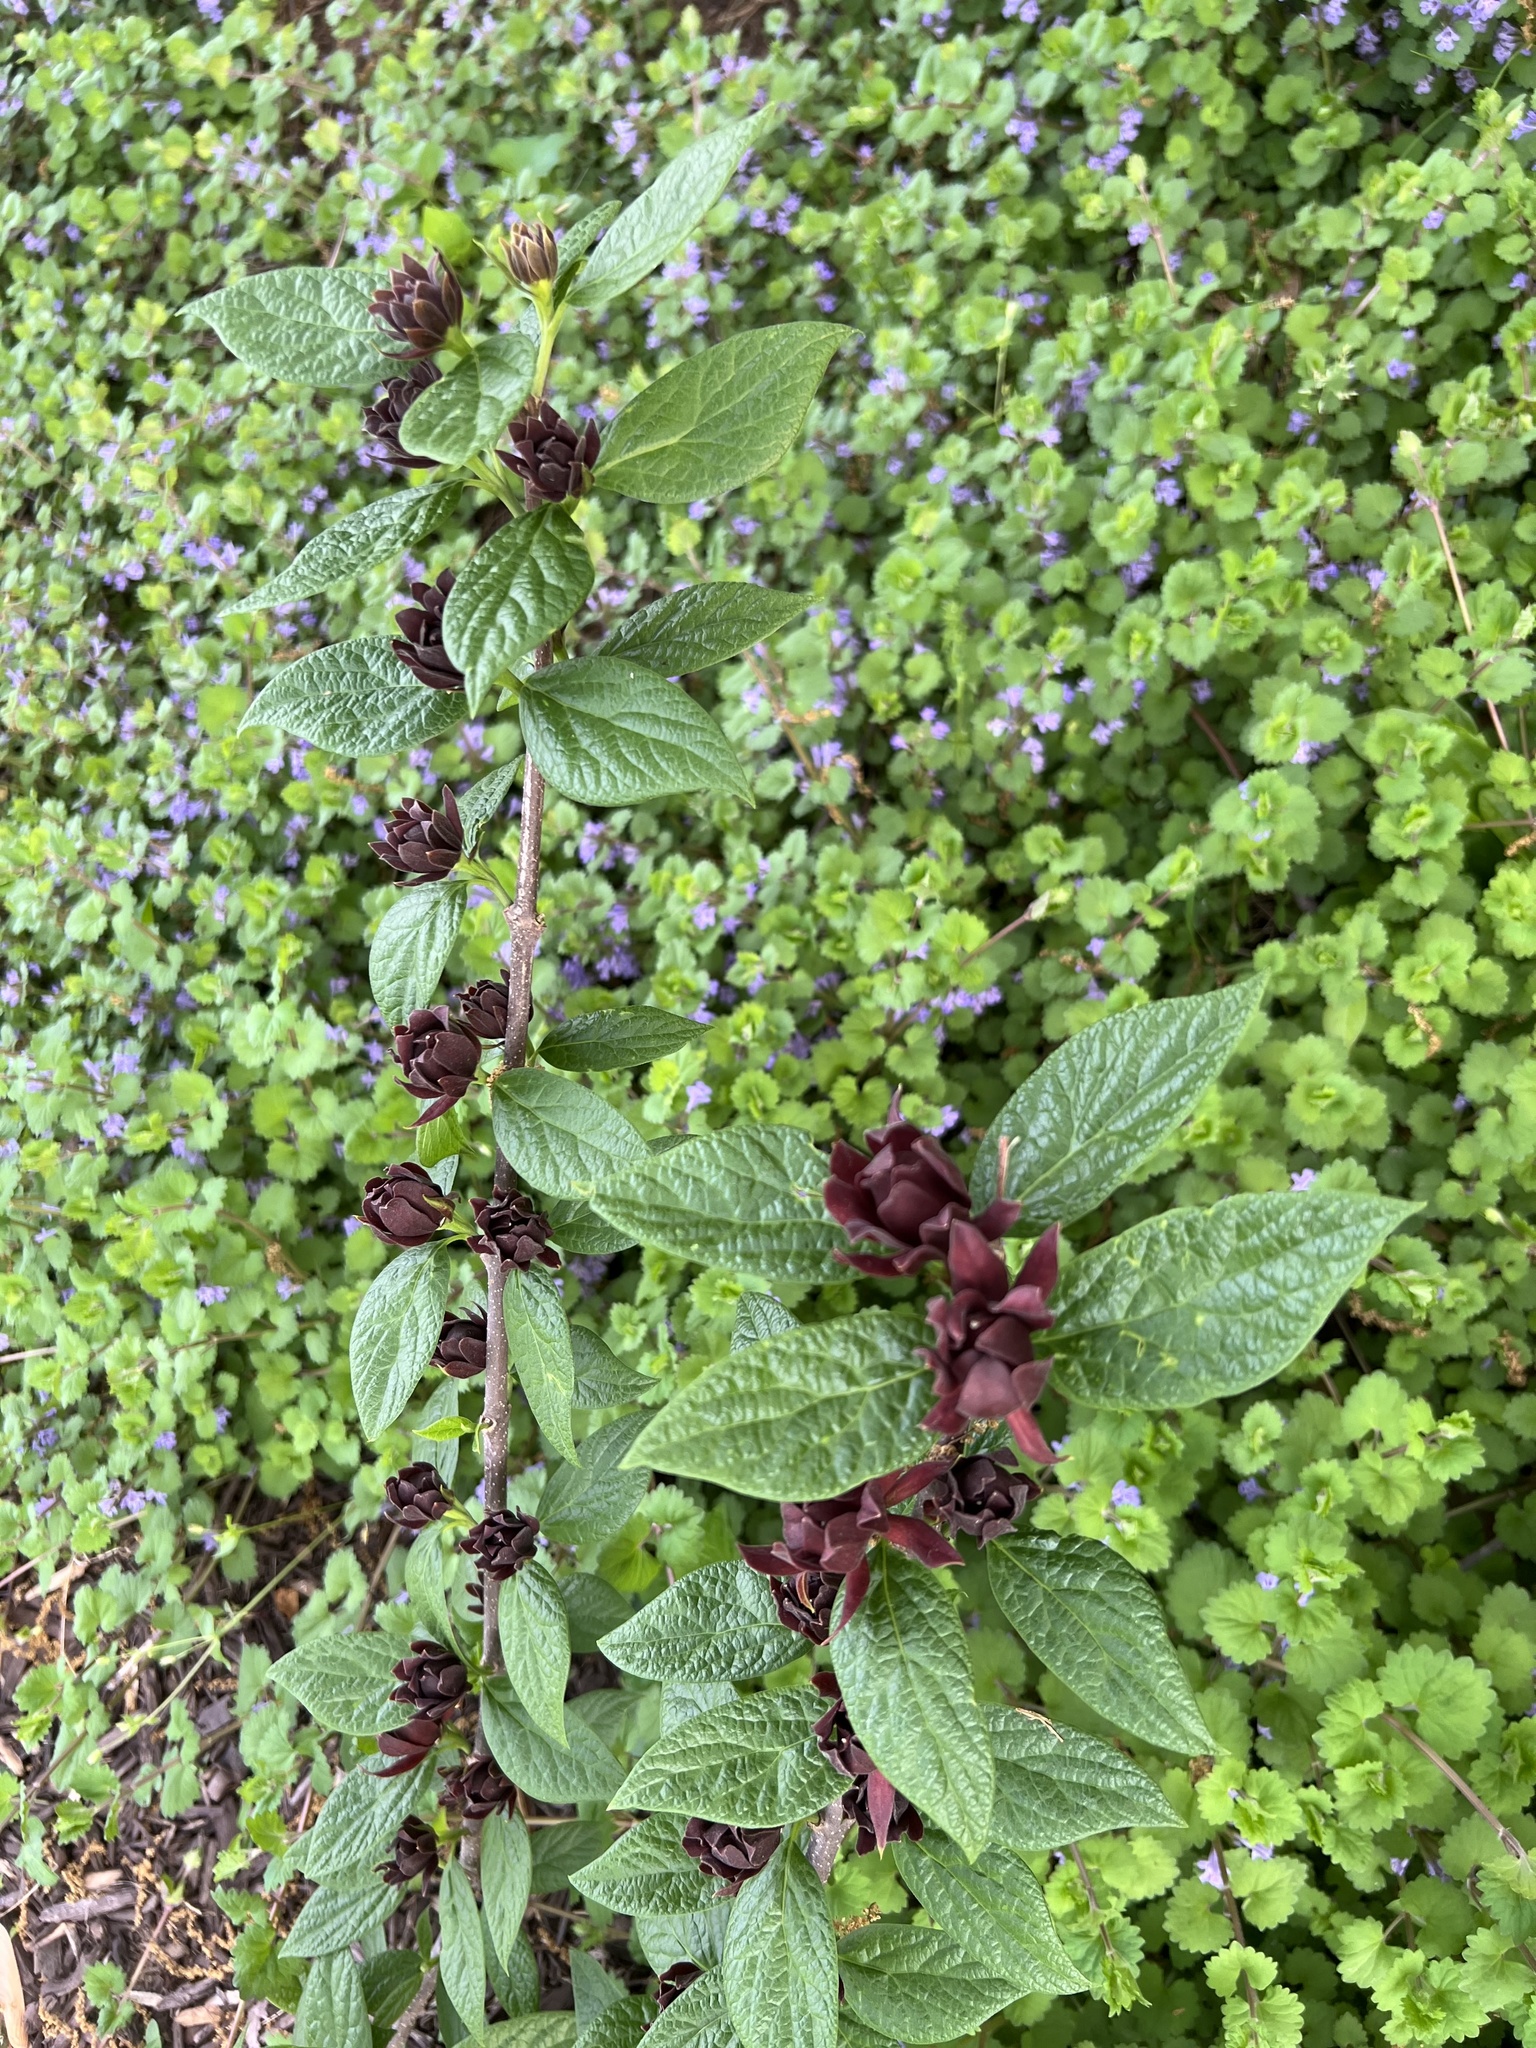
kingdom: Plantae
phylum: Tracheophyta
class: Magnoliopsida
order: Laurales
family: Calycanthaceae
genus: Calycanthus
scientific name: Calycanthus floridus
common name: Carolina-allspice
